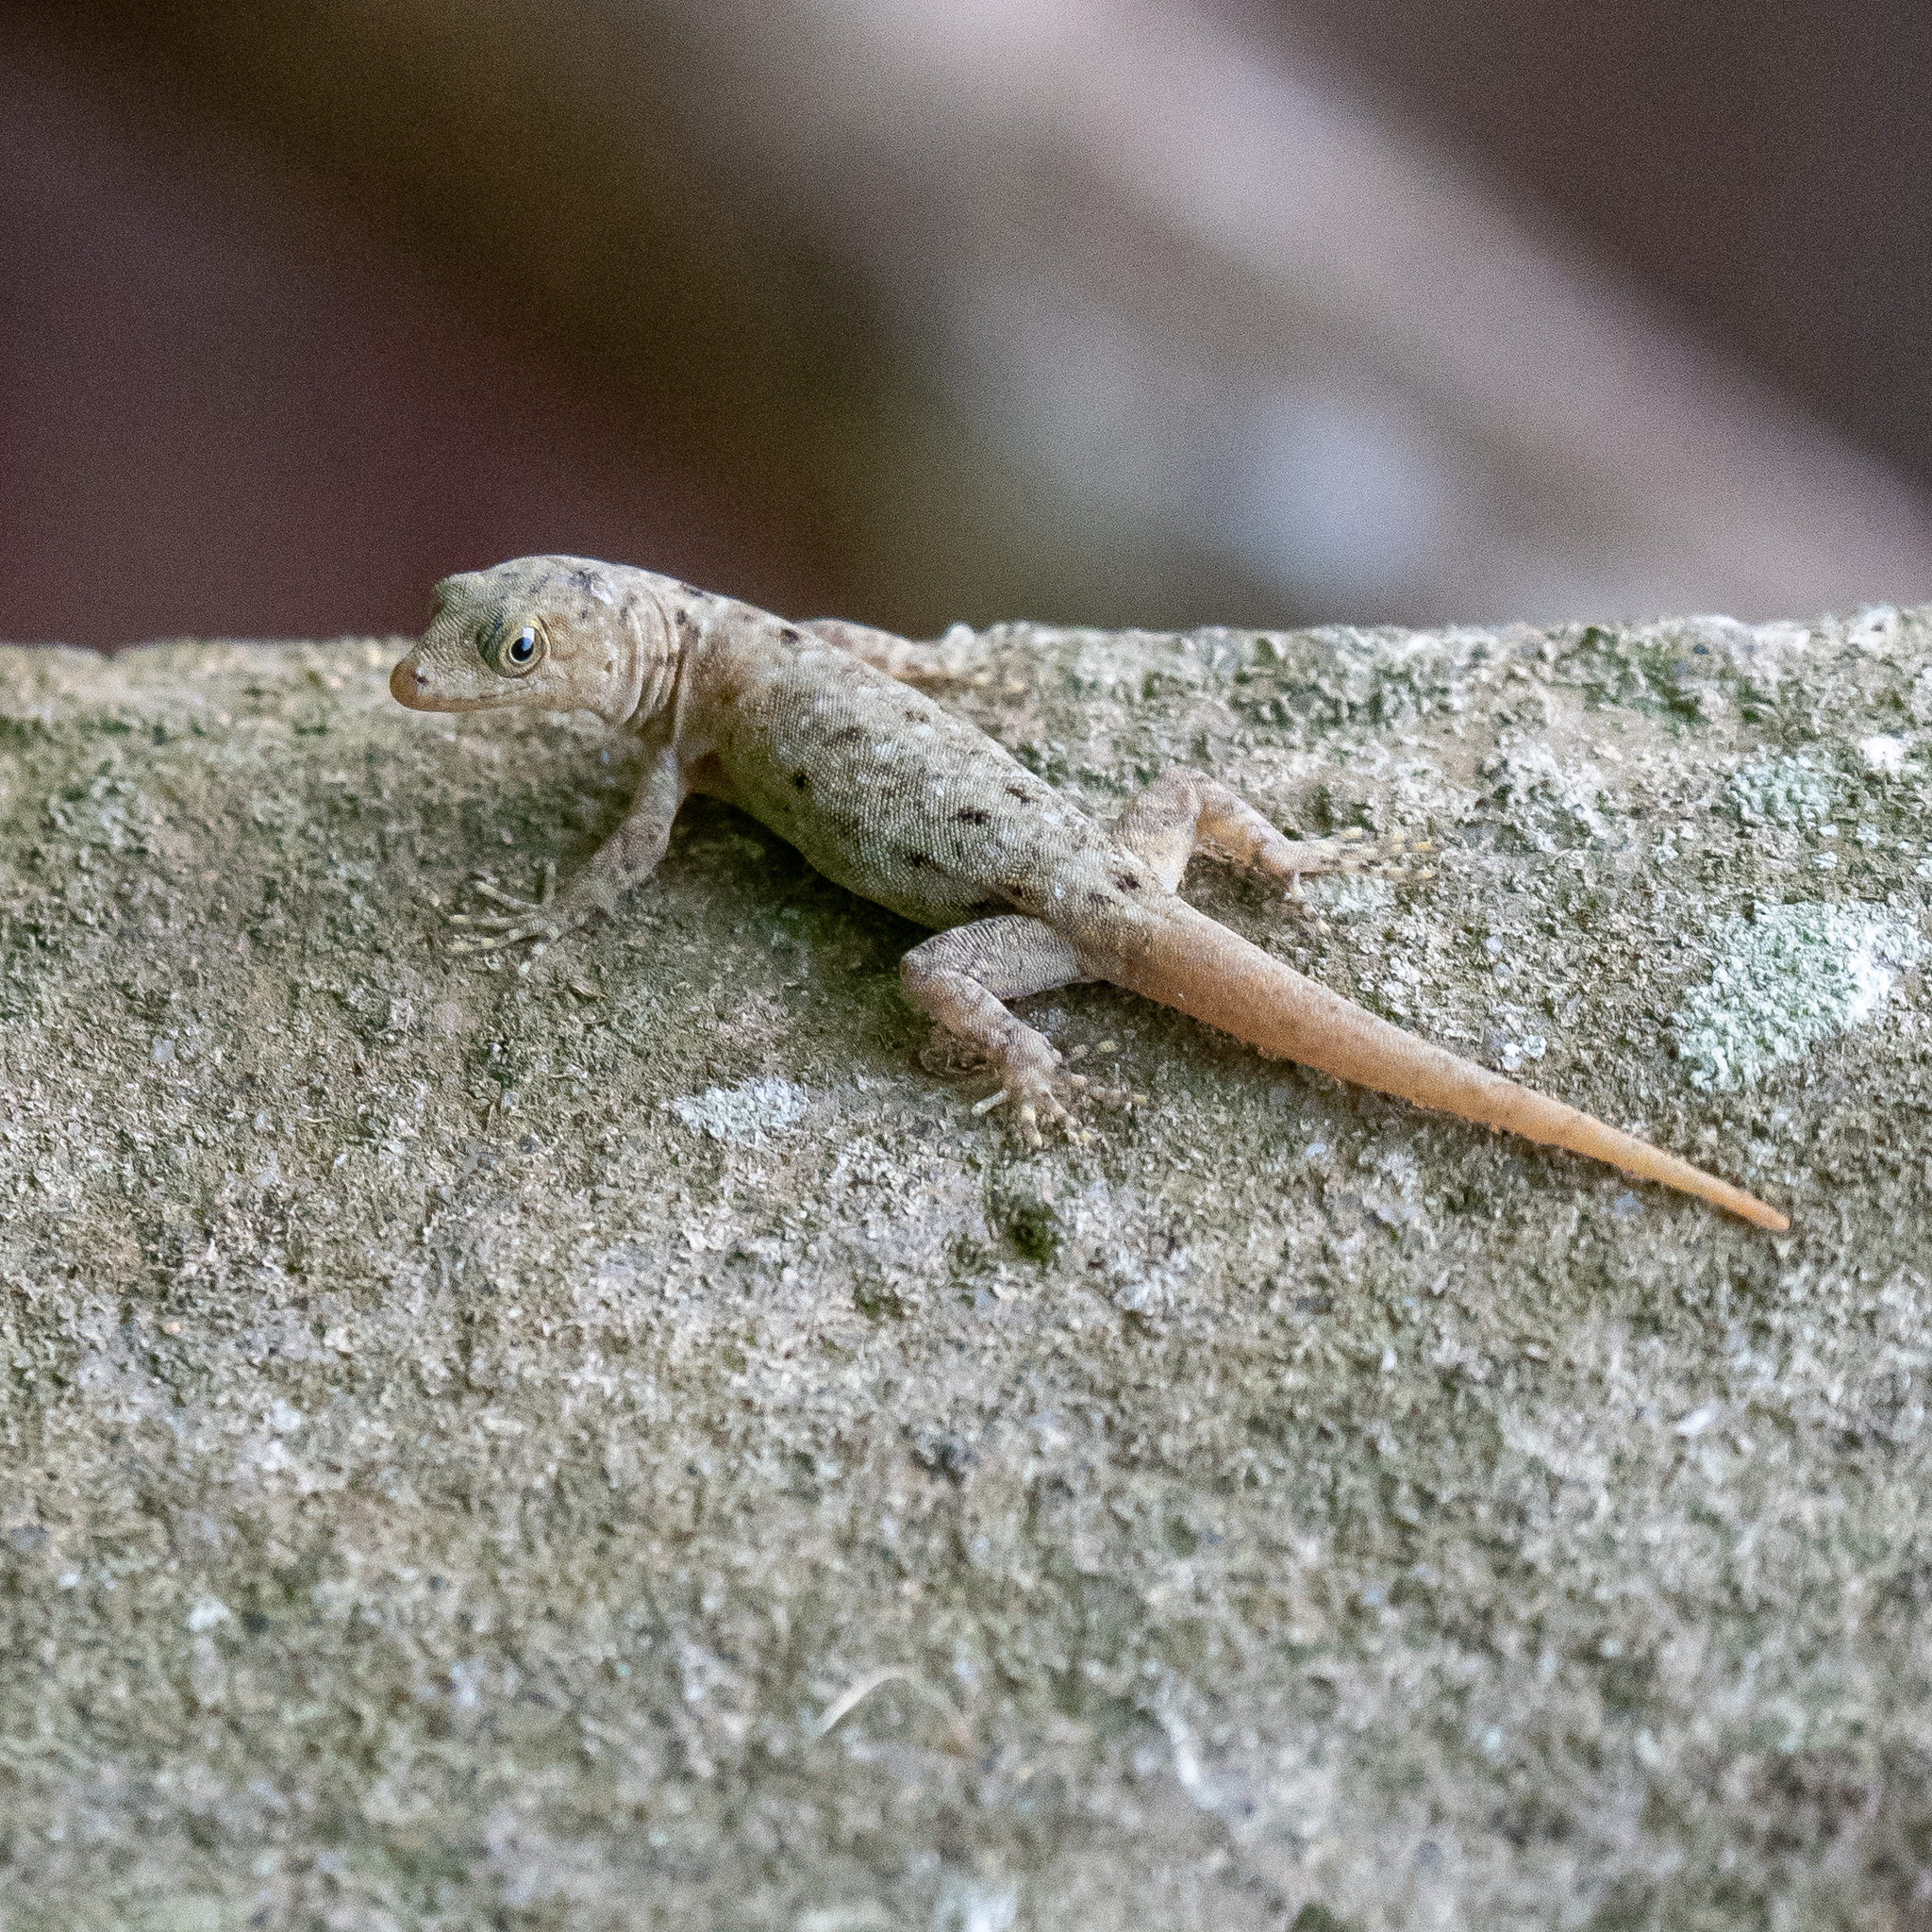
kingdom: Animalia
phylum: Chordata
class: Squamata
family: Sphaerodactylidae
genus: Gonatodes
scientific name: Gonatodes albogularis
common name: Yellow-headed gecko
